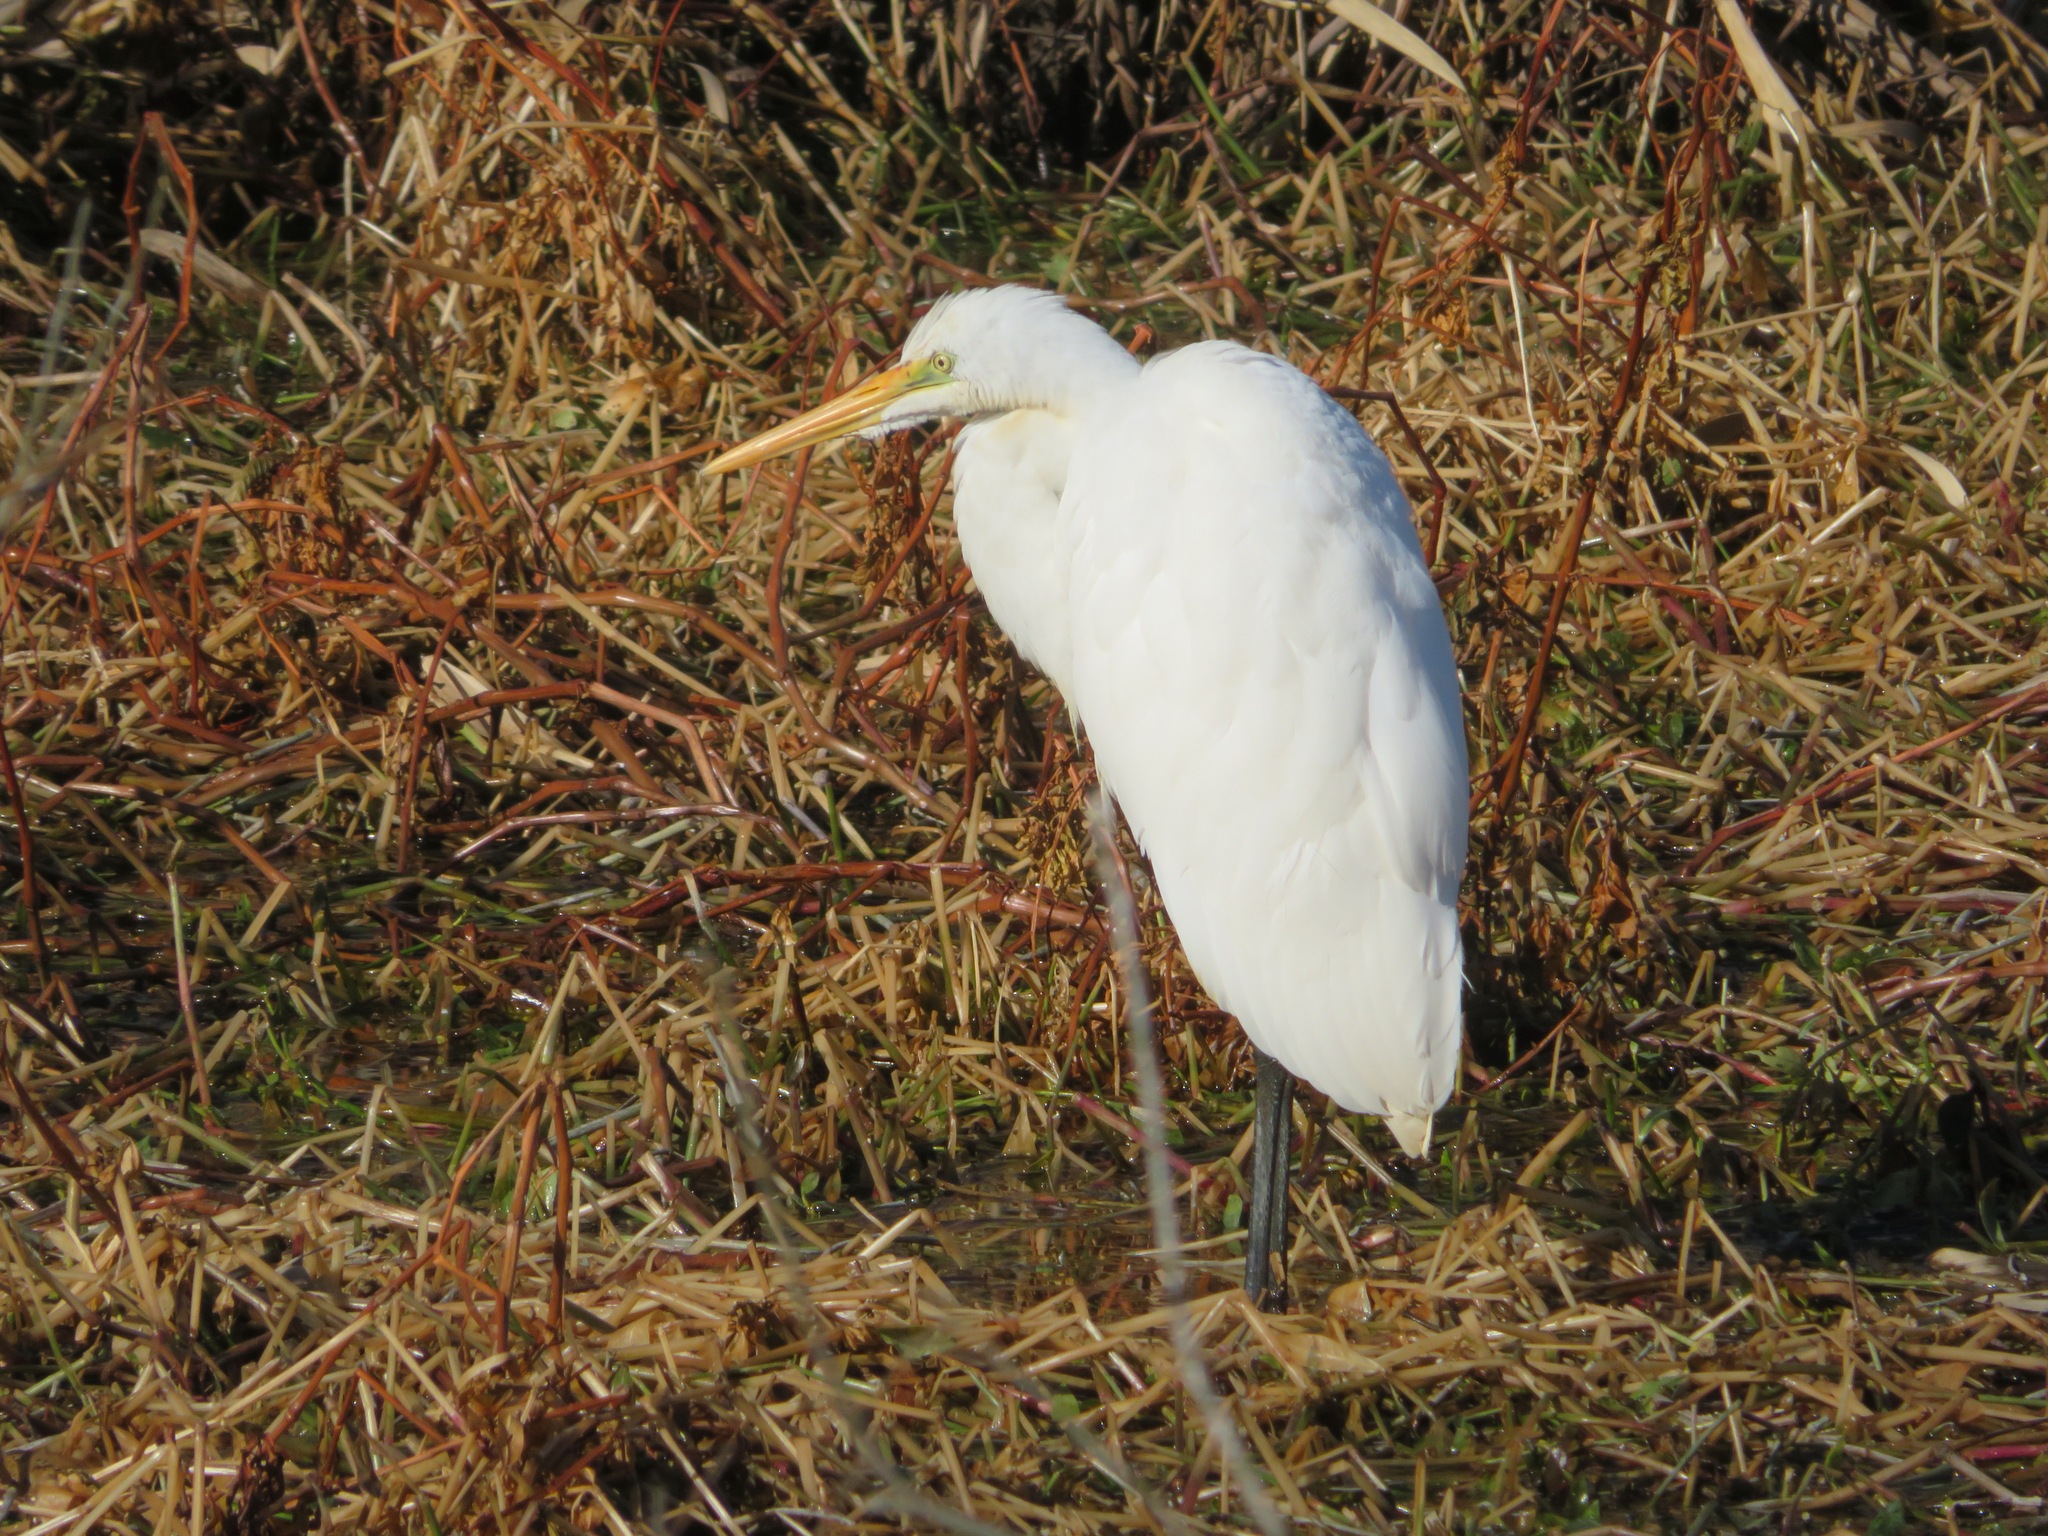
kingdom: Animalia
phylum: Chordata
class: Aves
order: Pelecaniformes
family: Ardeidae
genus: Ardea
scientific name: Ardea alba
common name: Great egret
